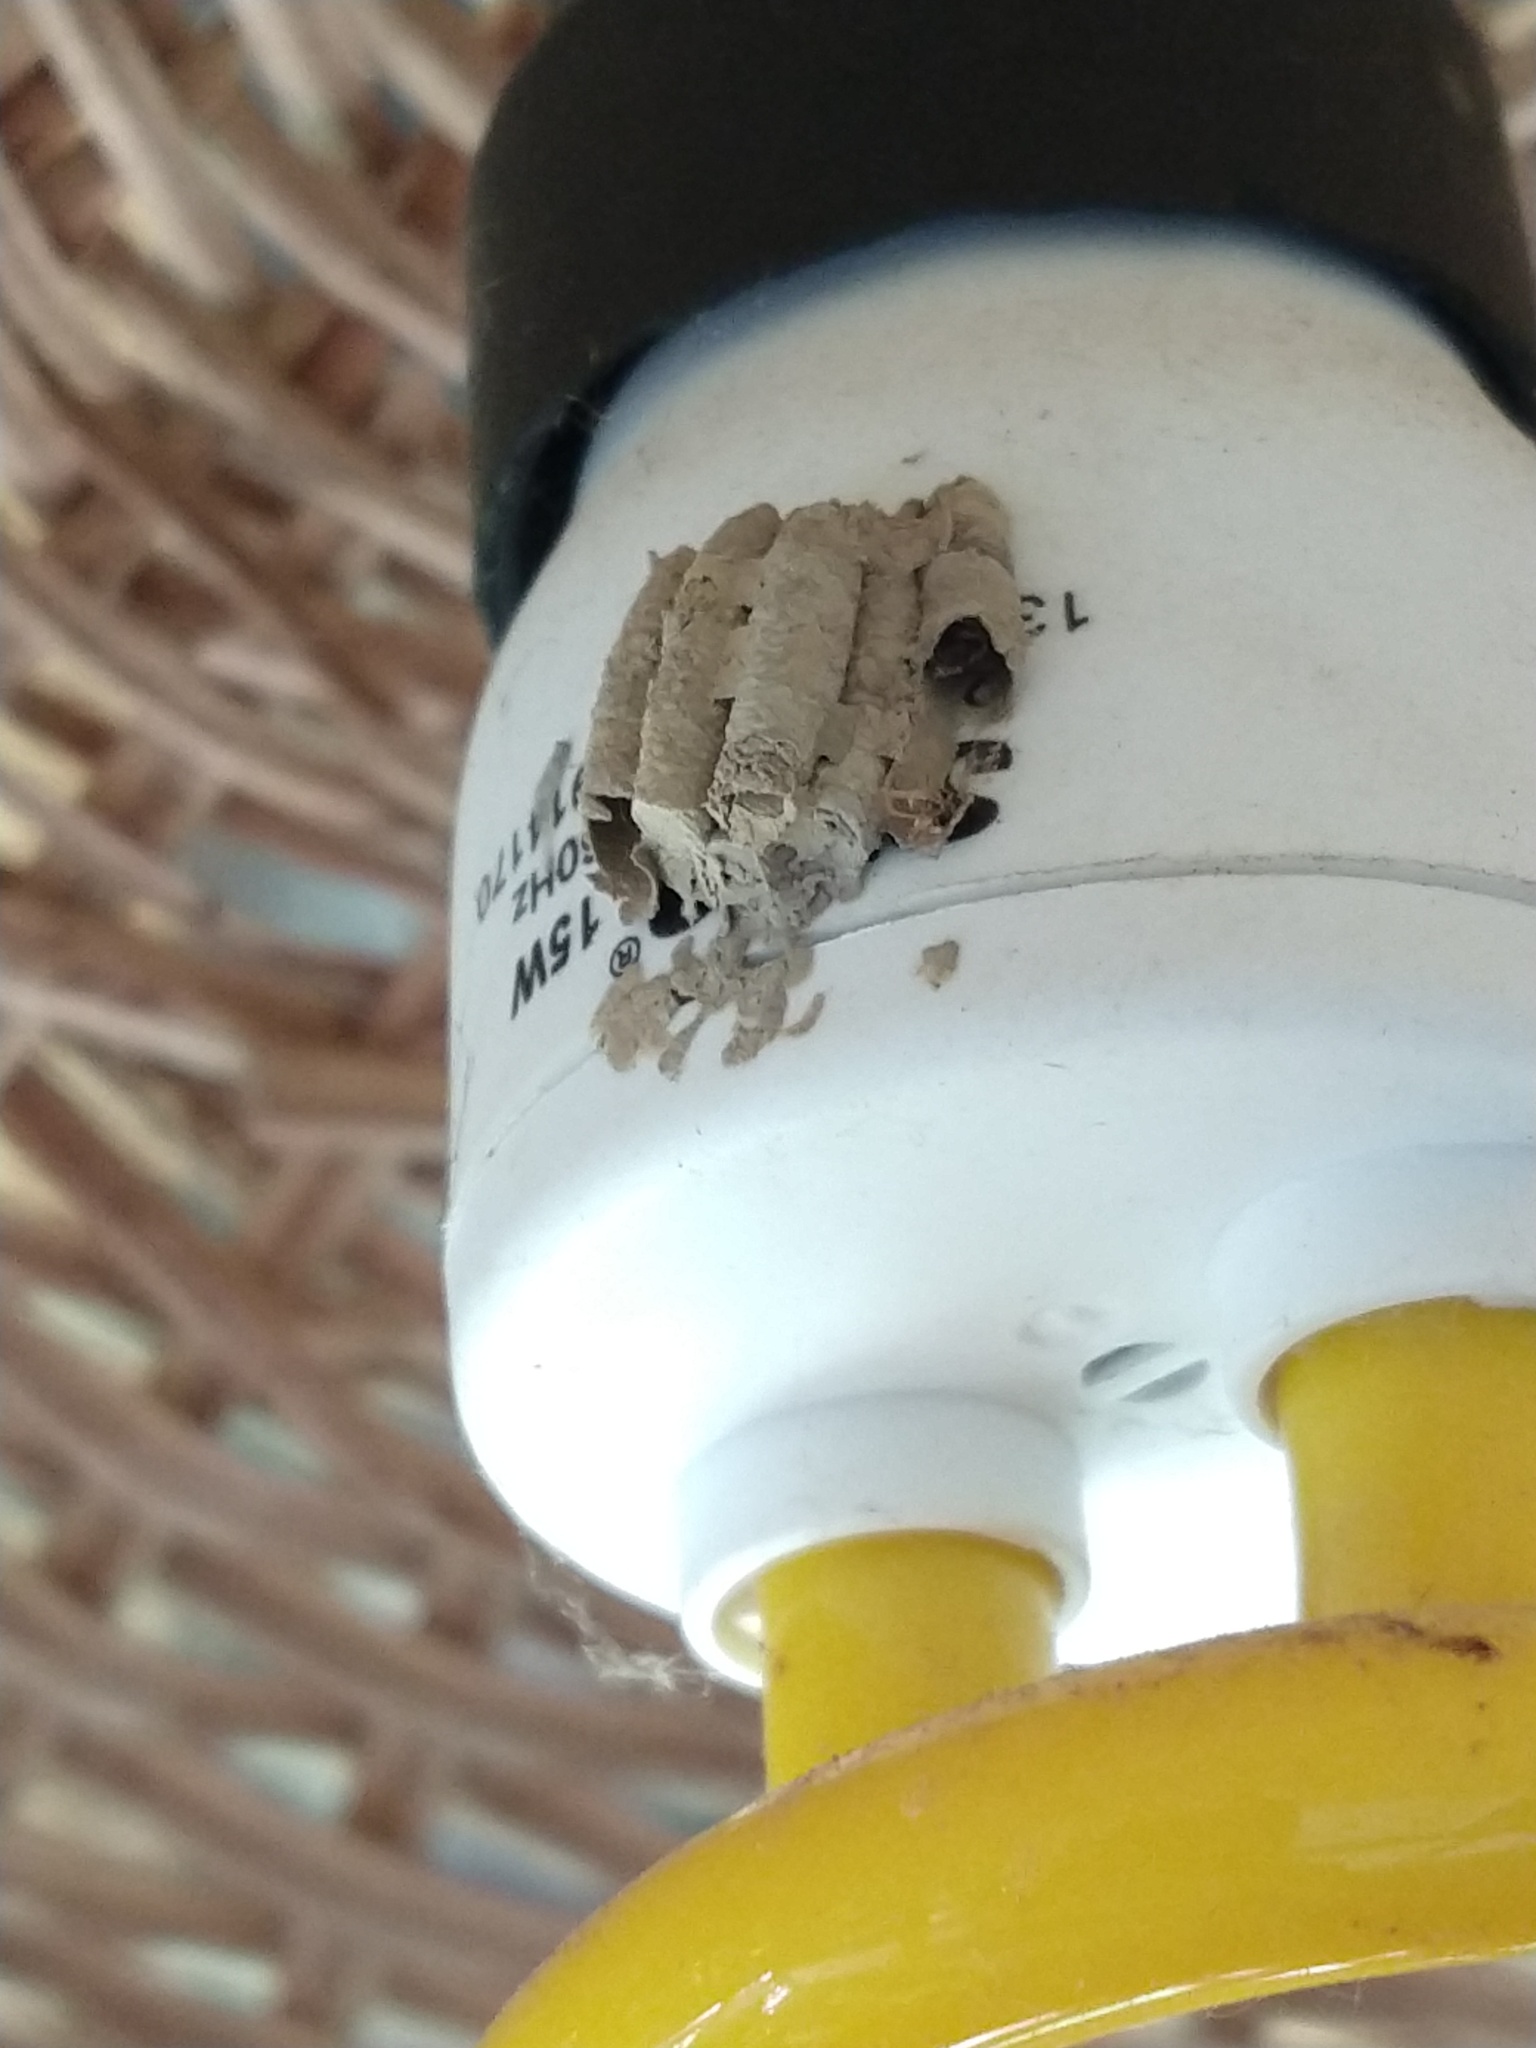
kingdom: Animalia
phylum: Arthropoda
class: Insecta
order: Hymenoptera
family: Sphecidae
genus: Sceliphron
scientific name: Sceliphron
